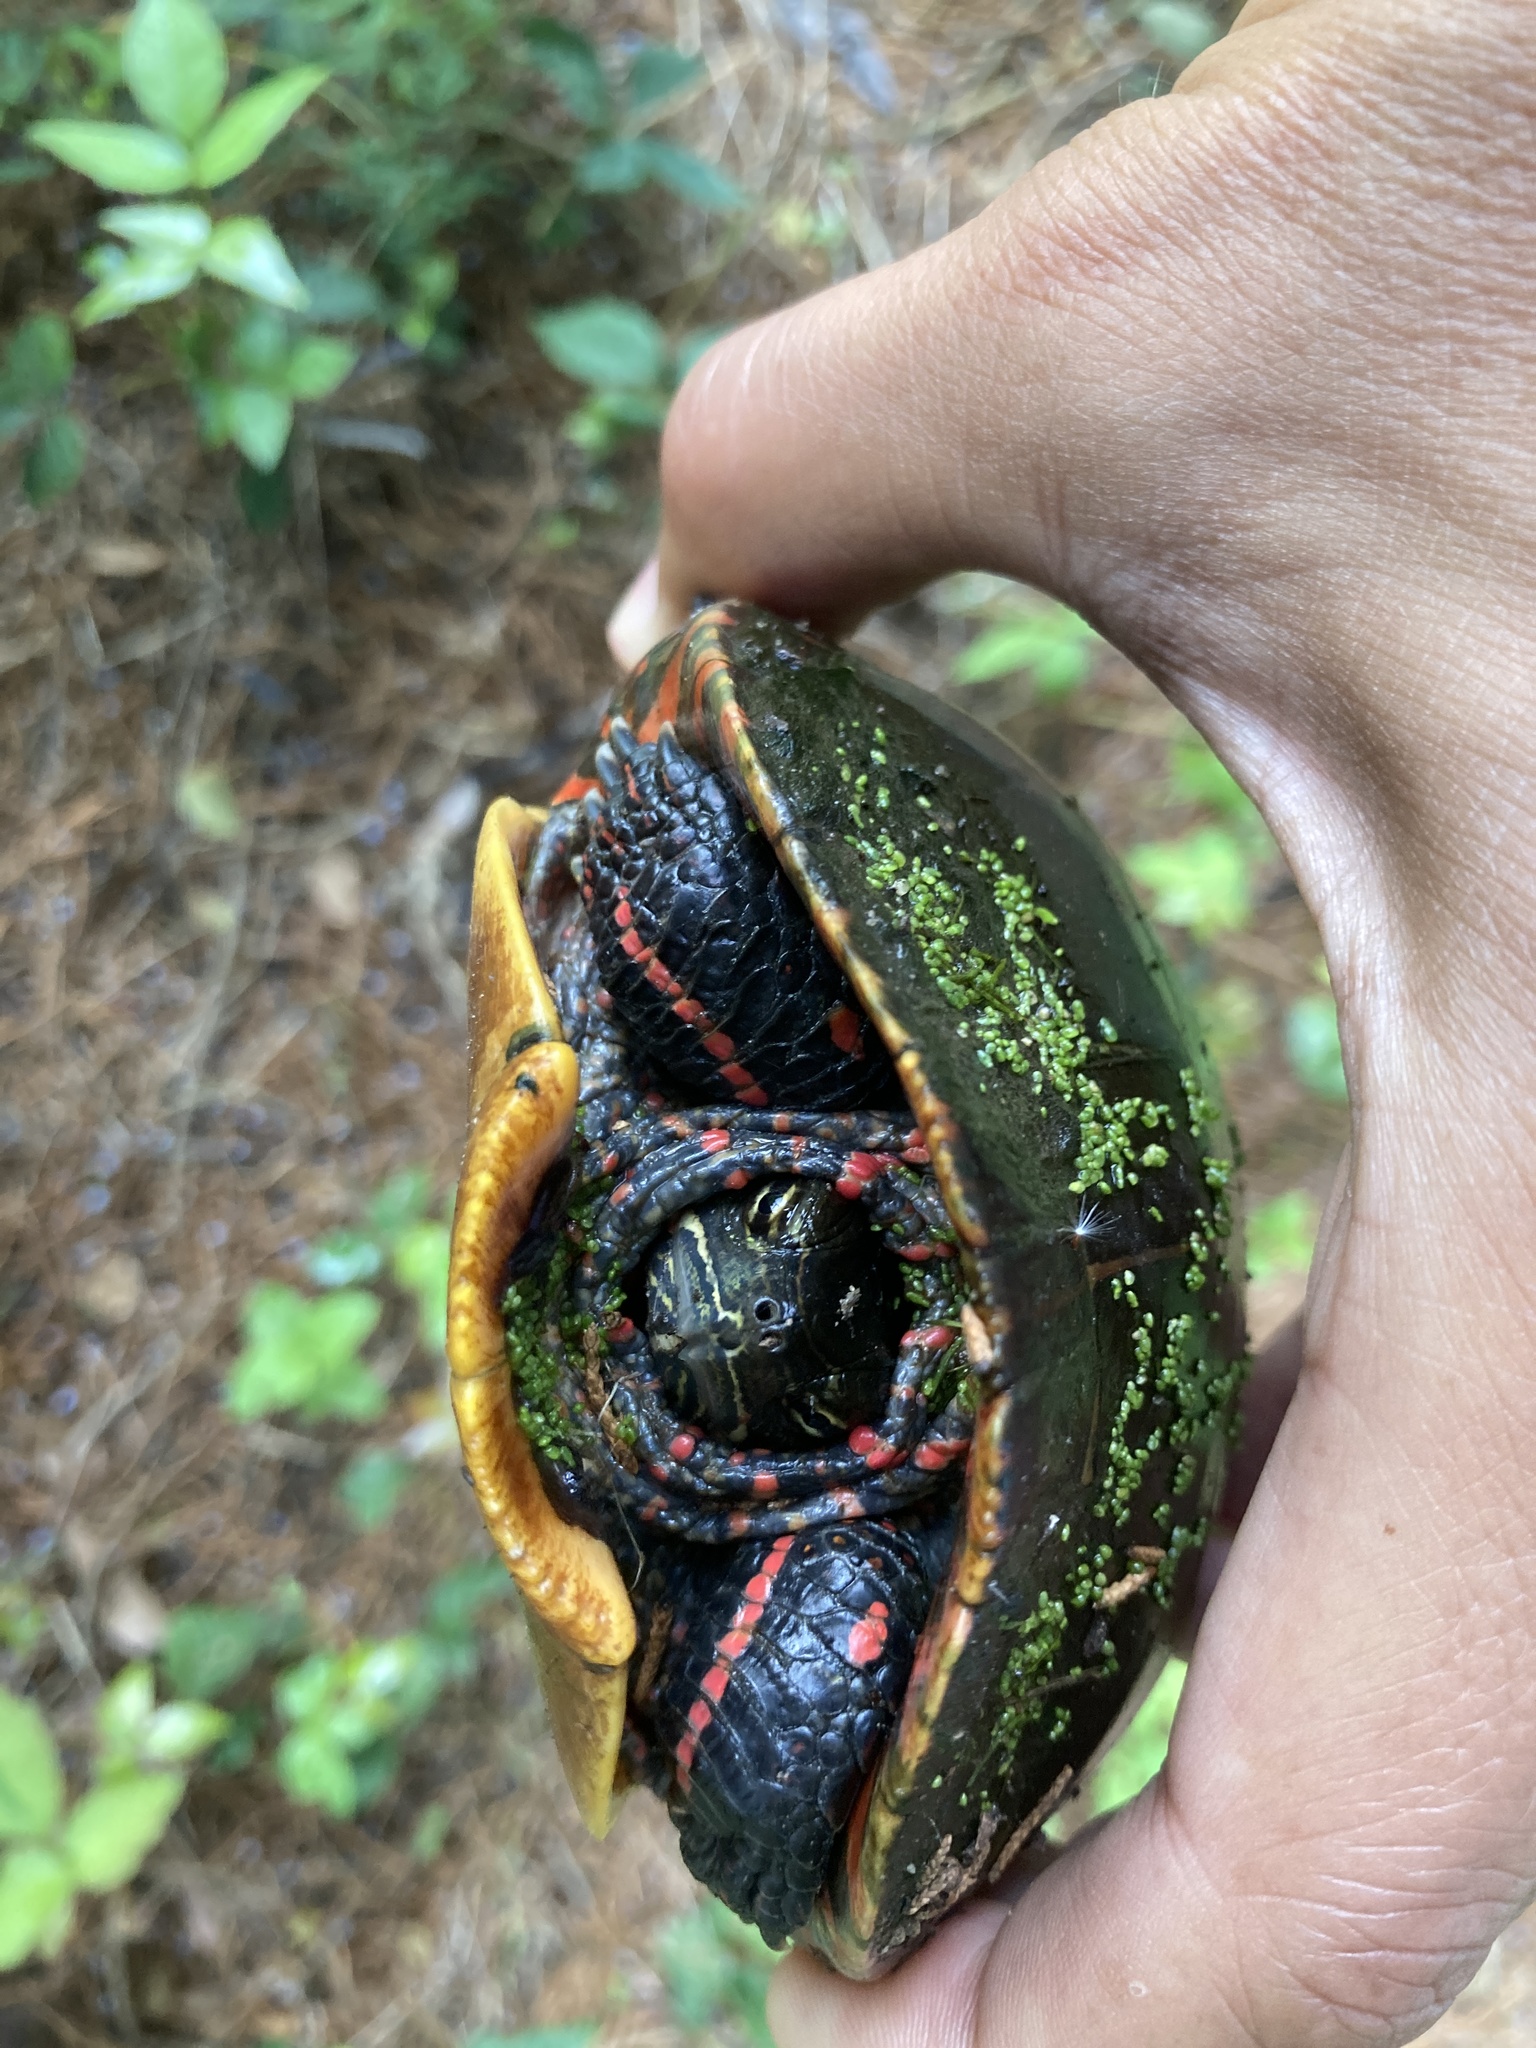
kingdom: Animalia
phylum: Chordata
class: Testudines
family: Emydidae
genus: Chrysemys
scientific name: Chrysemys picta
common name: Painted turtle
